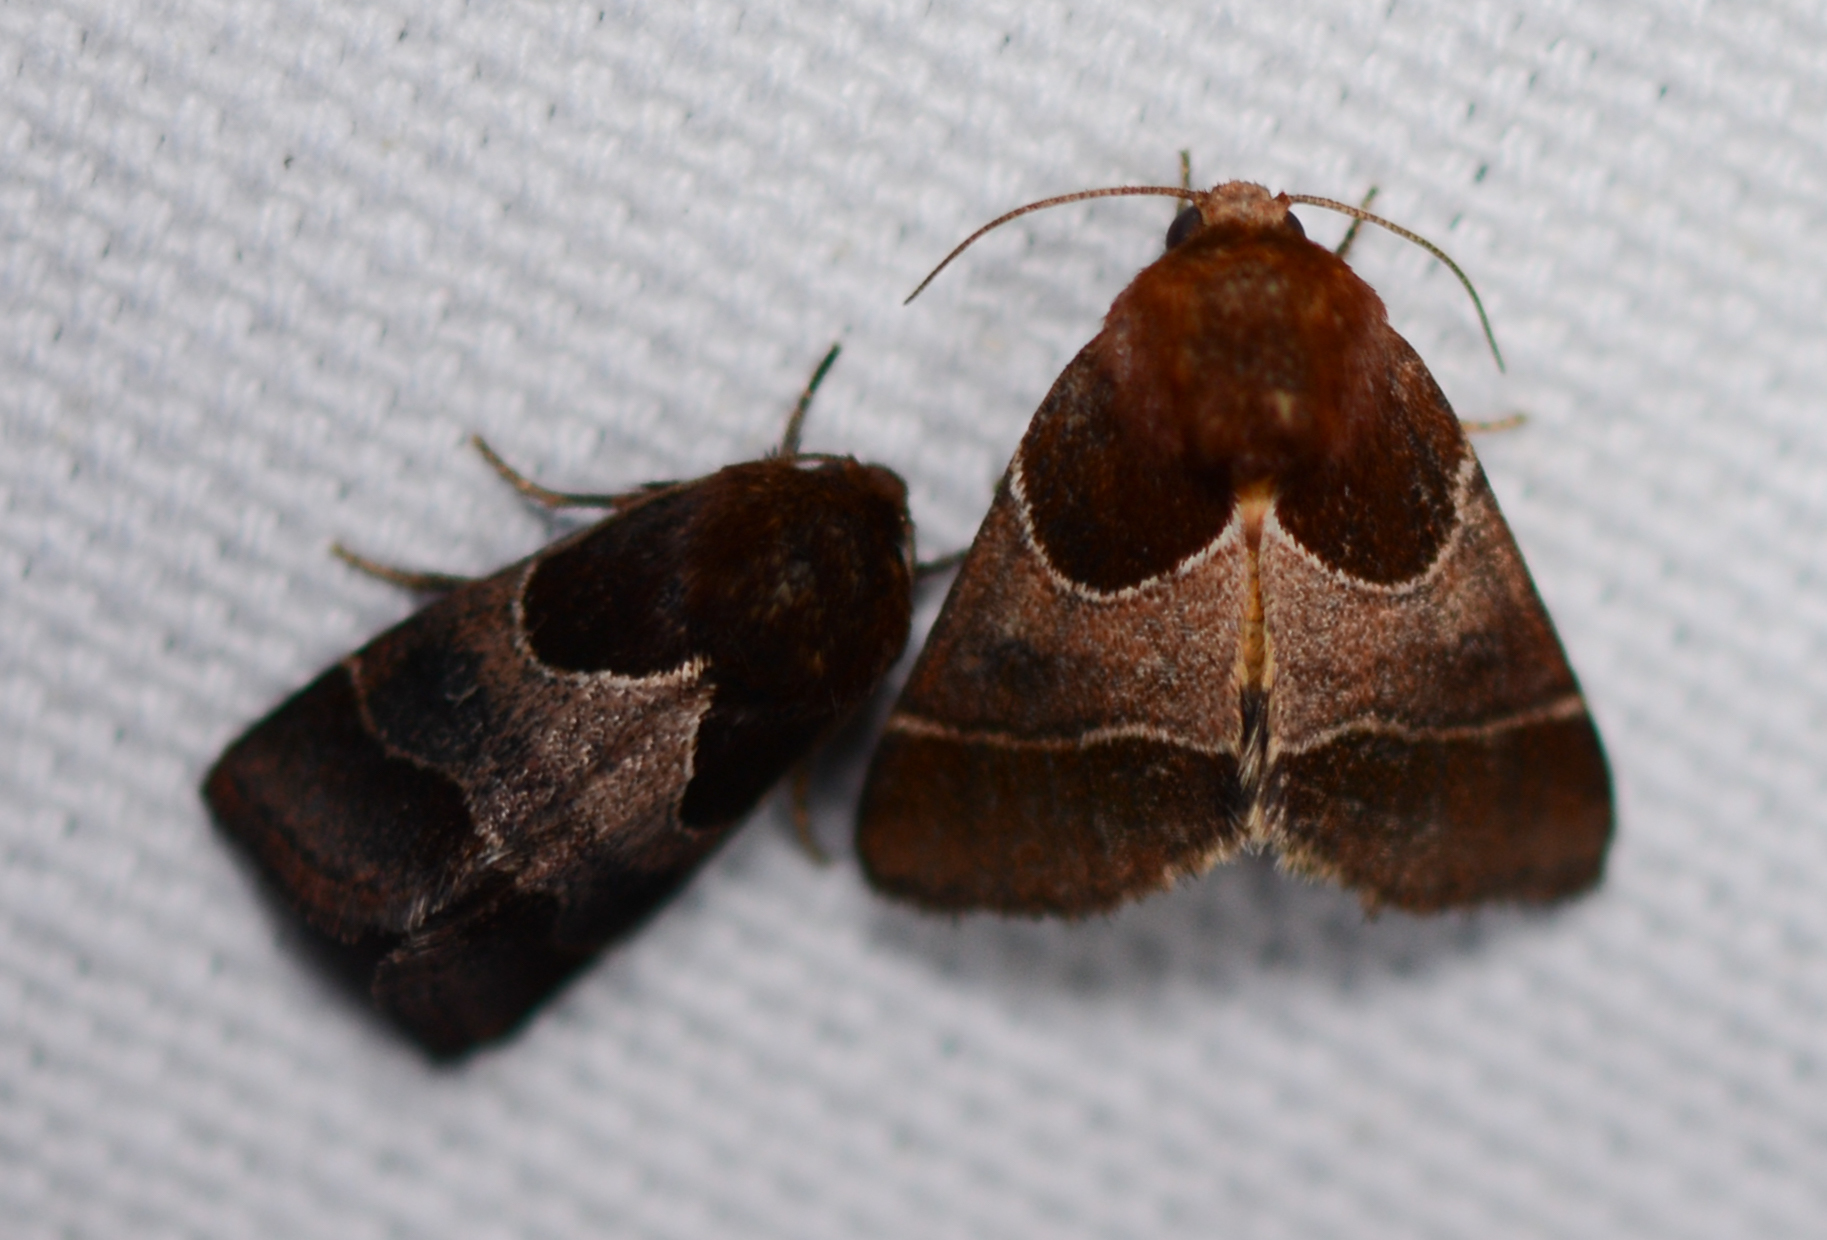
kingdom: Animalia
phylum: Arthropoda
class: Insecta
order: Lepidoptera
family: Noctuidae
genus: Schinia
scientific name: Schinia arcigera
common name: Arcigera flower moth
